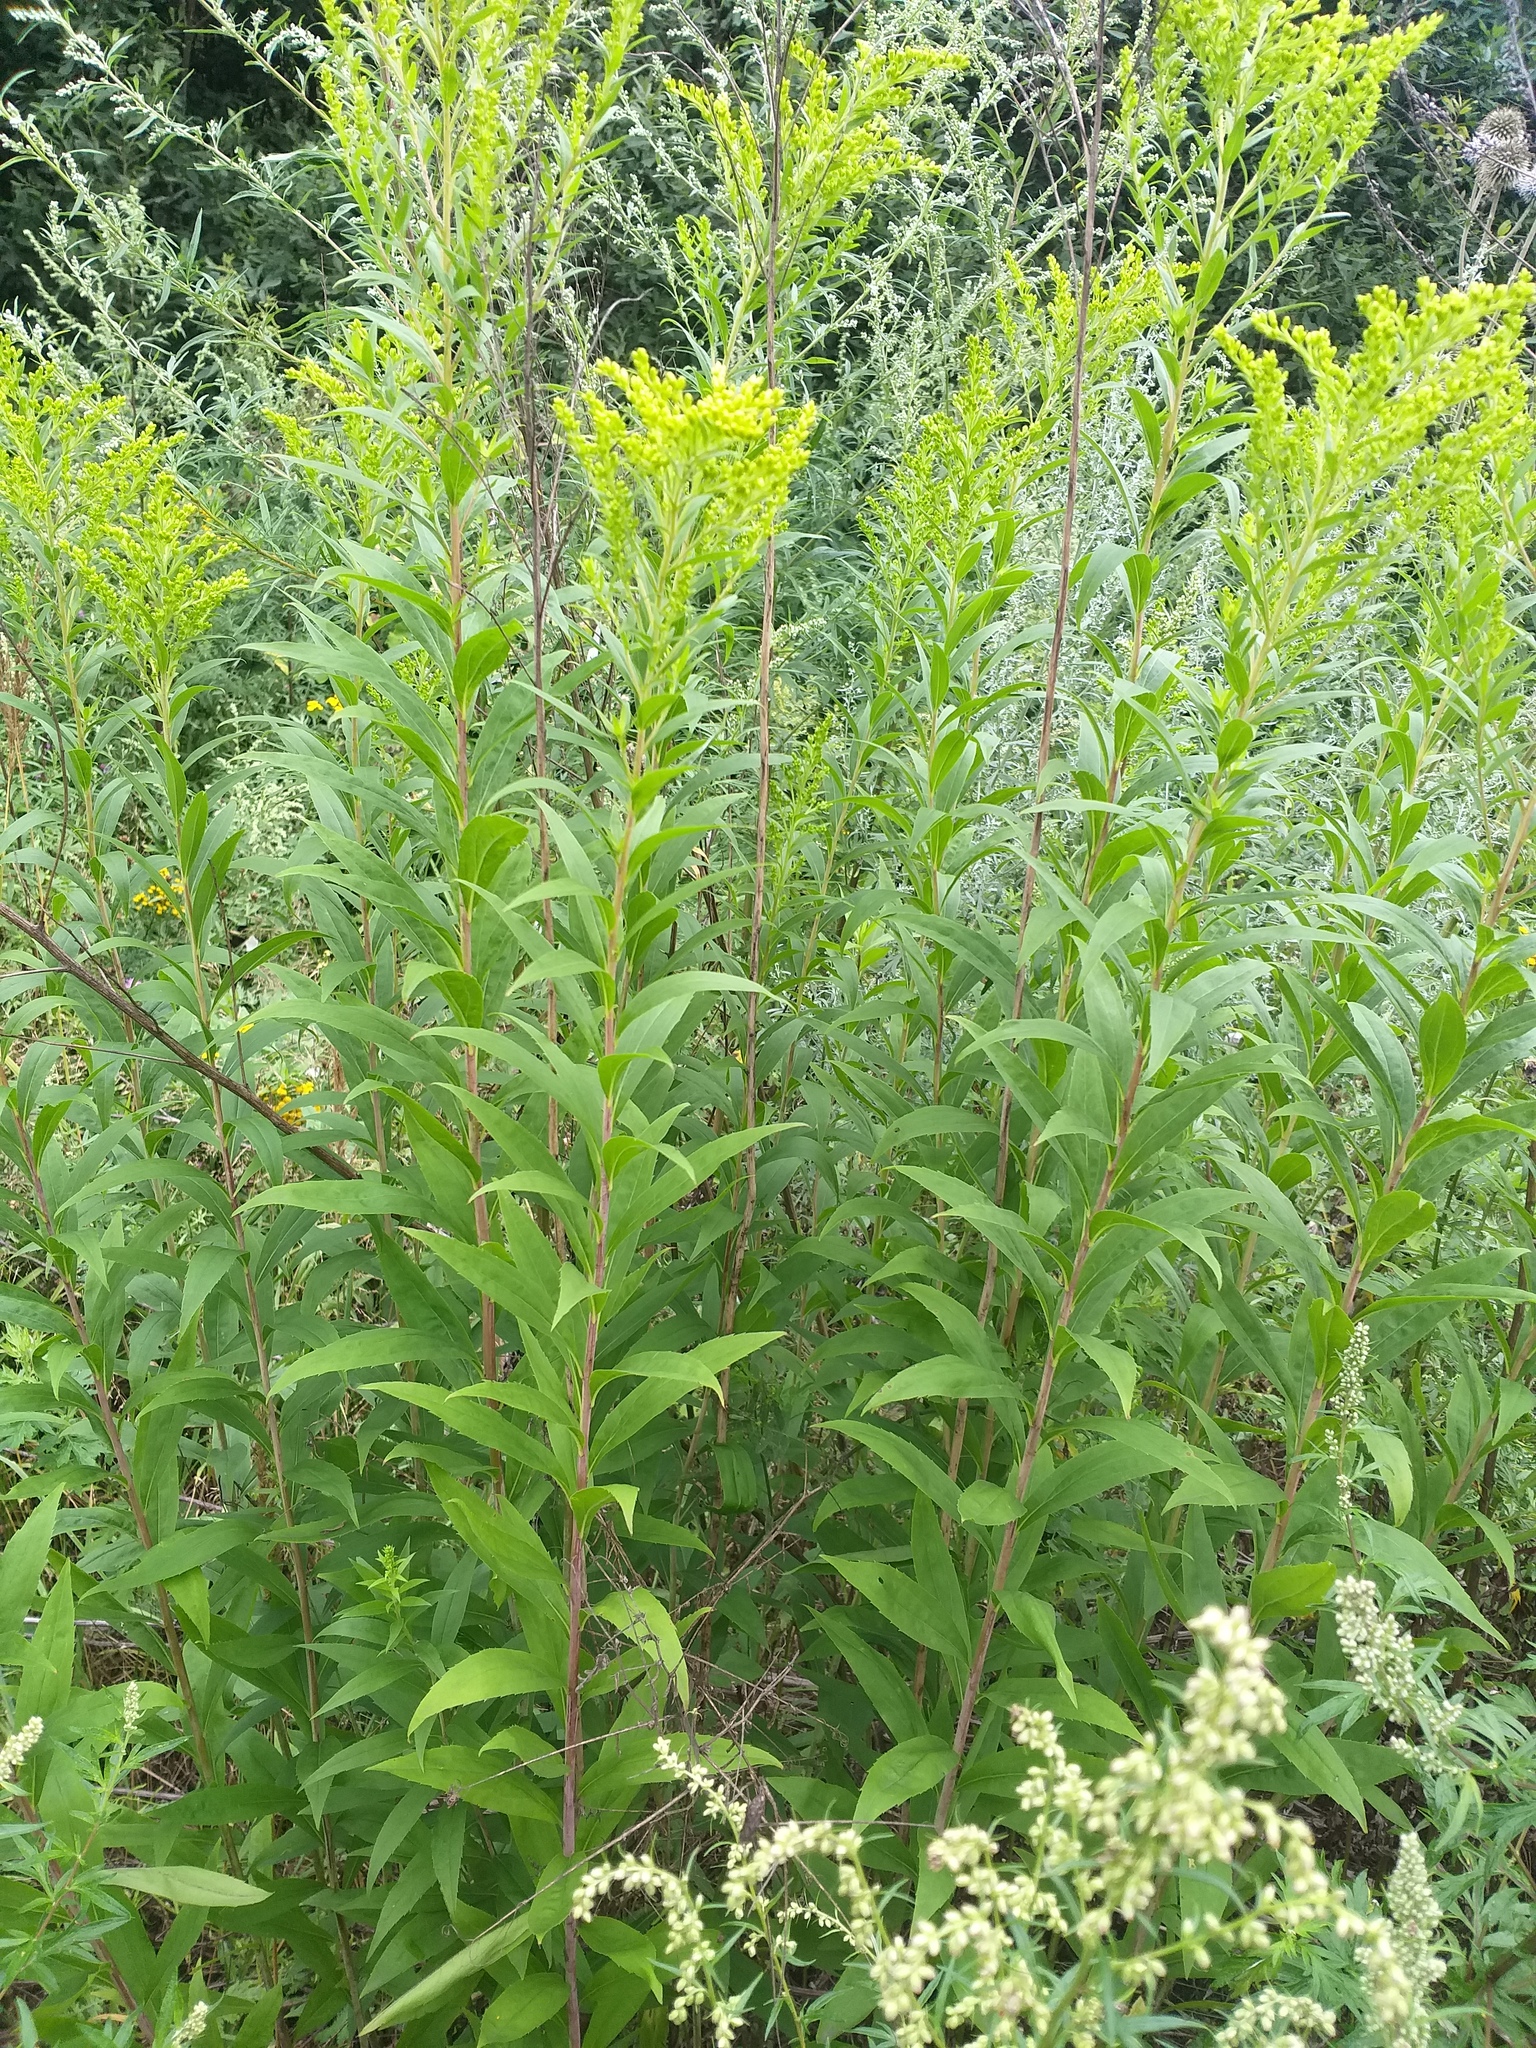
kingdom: Plantae
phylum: Tracheophyta
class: Magnoliopsida
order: Asterales
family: Asteraceae
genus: Solidago
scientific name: Solidago gigantea
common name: Giant goldenrod
